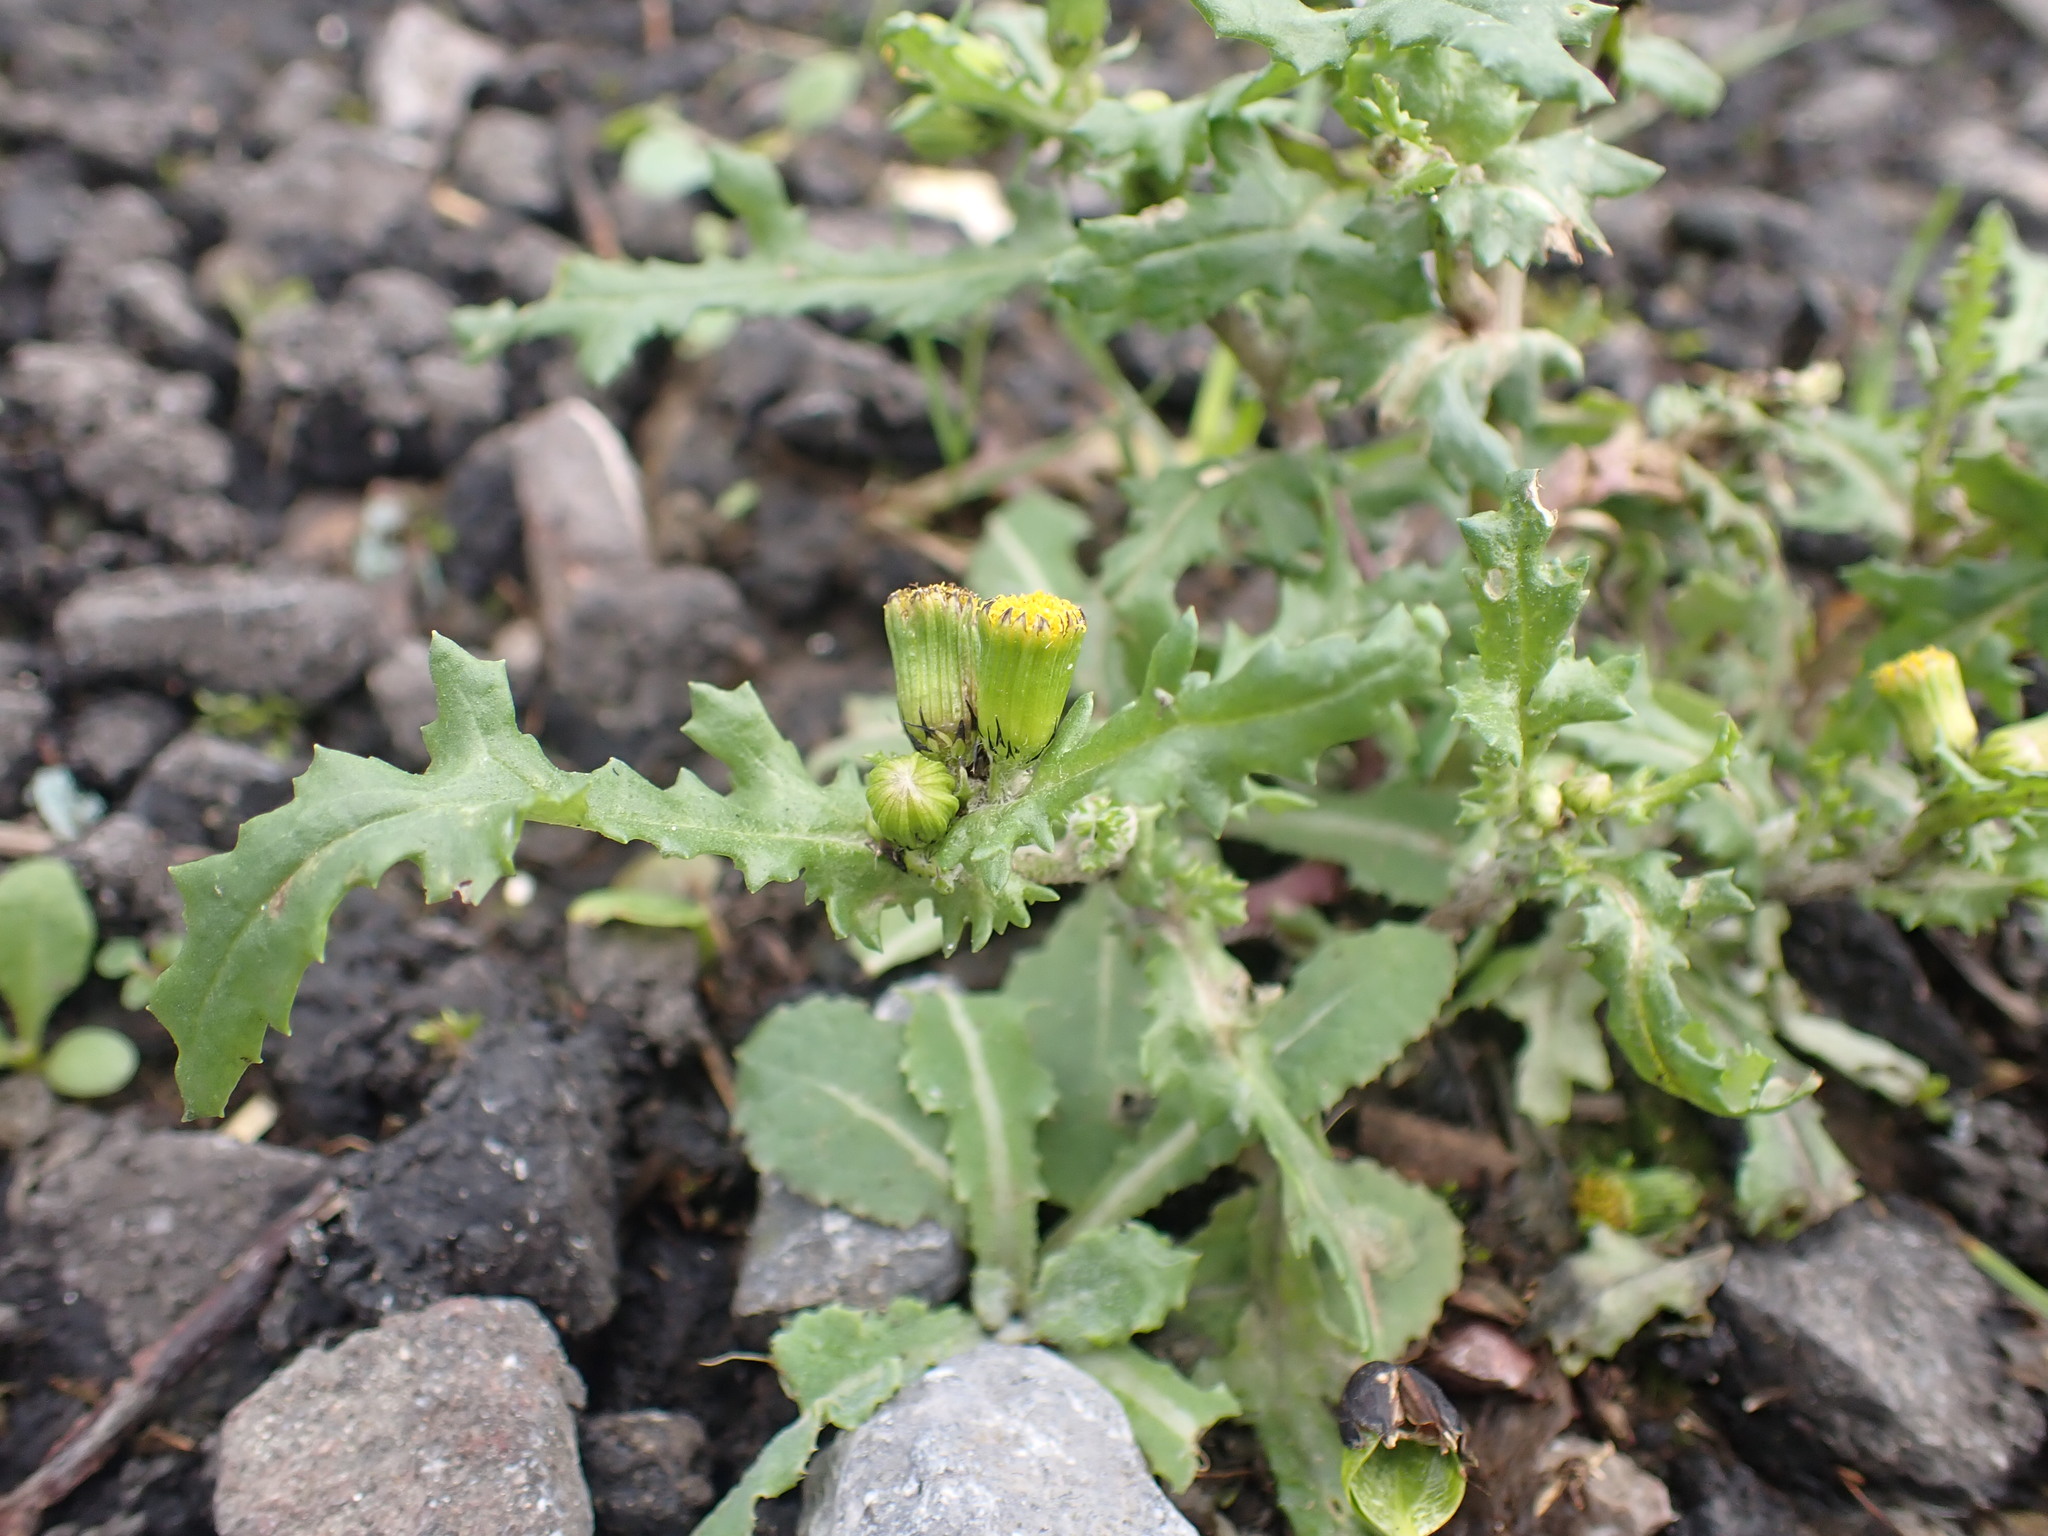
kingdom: Plantae
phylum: Tracheophyta
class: Magnoliopsida
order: Asterales
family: Asteraceae
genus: Senecio
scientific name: Senecio vulgaris
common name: Old-man-in-the-spring
